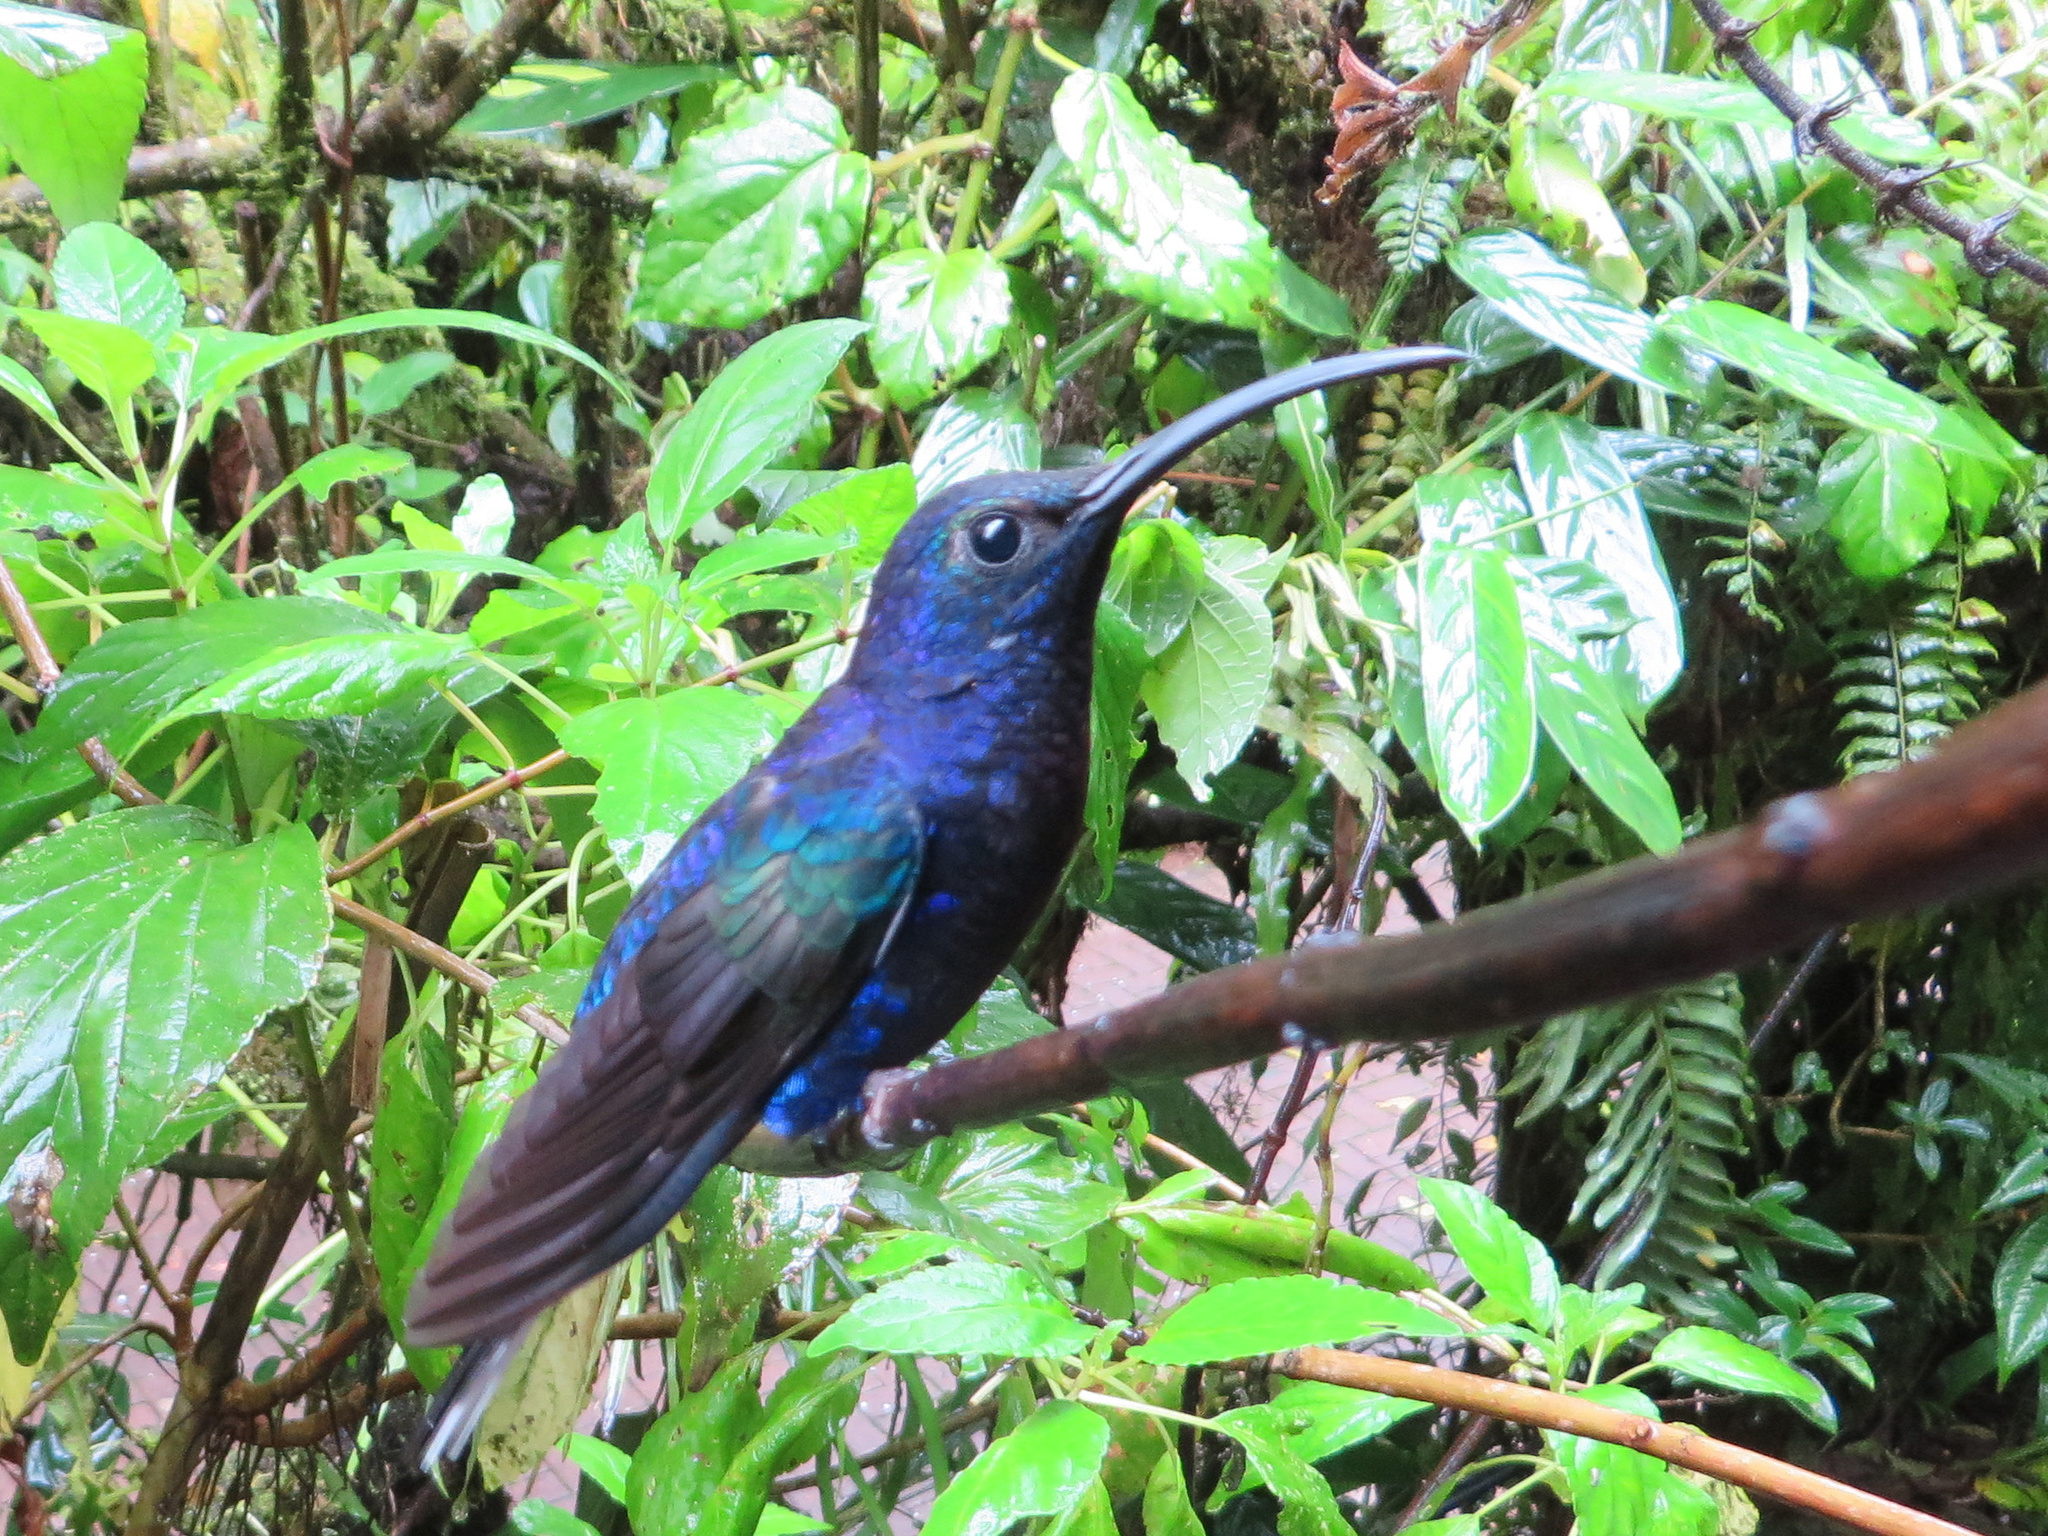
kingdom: Animalia
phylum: Chordata
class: Aves
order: Apodiformes
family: Trochilidae
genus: Campylopterus
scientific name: Campylopterus hemileucurus
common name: Violet sabrewing
